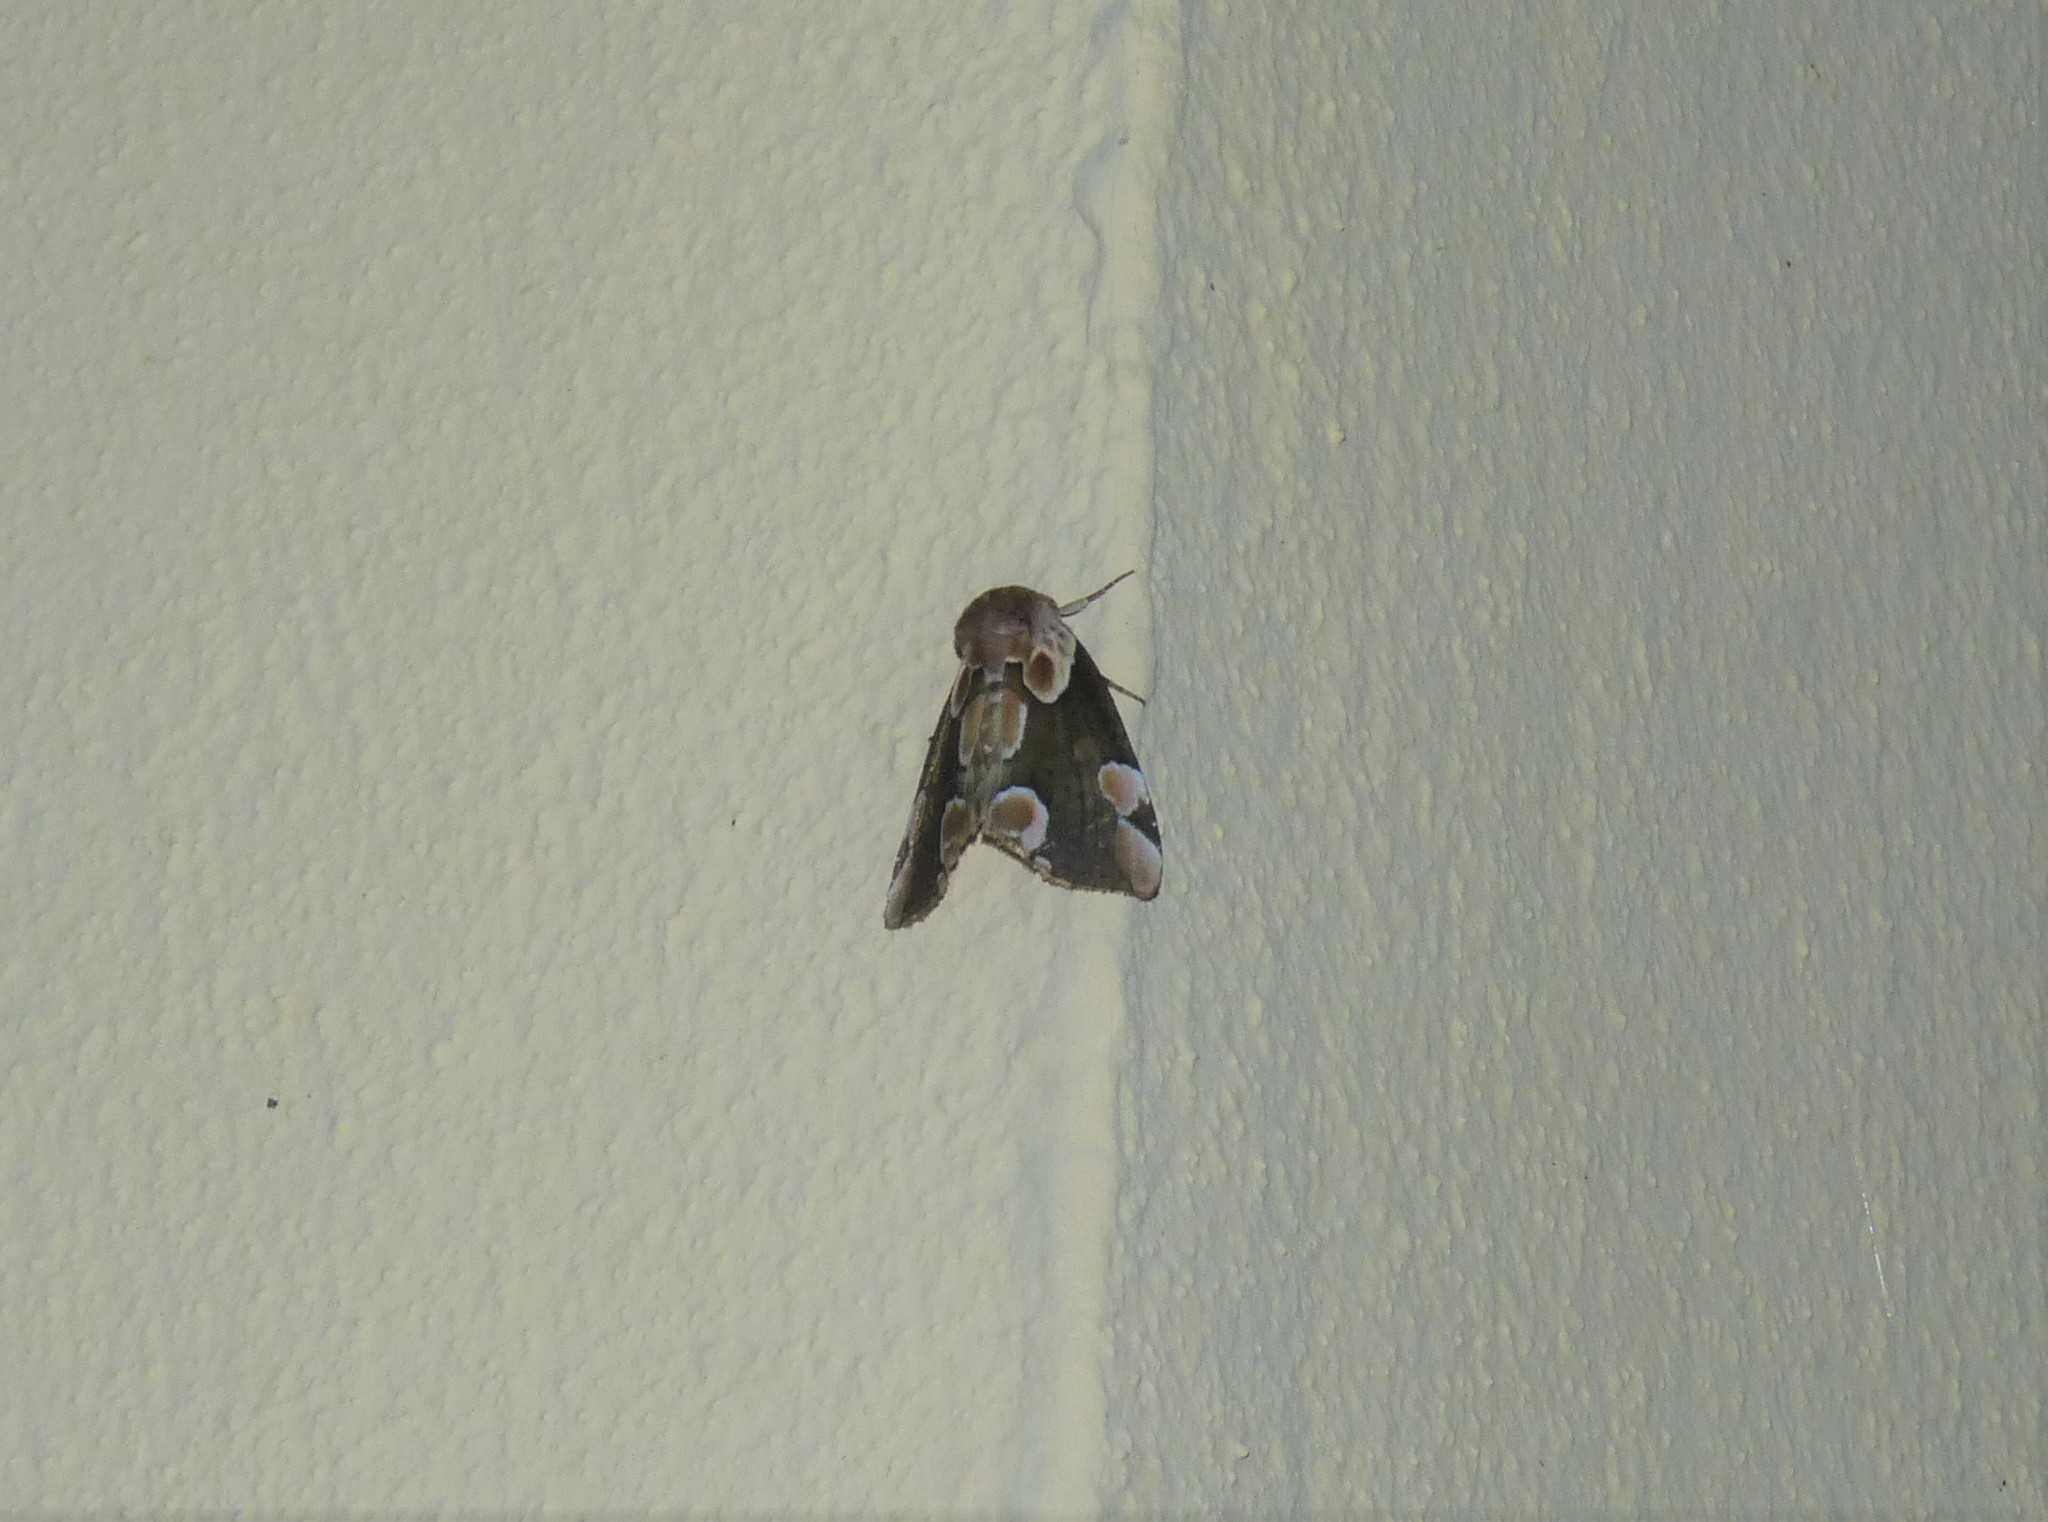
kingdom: Animalia
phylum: Arthropoda
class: Insecta
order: Lepidoptera
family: Drepanidae
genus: Thyatira
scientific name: Thyatira batis
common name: Peach blossom
